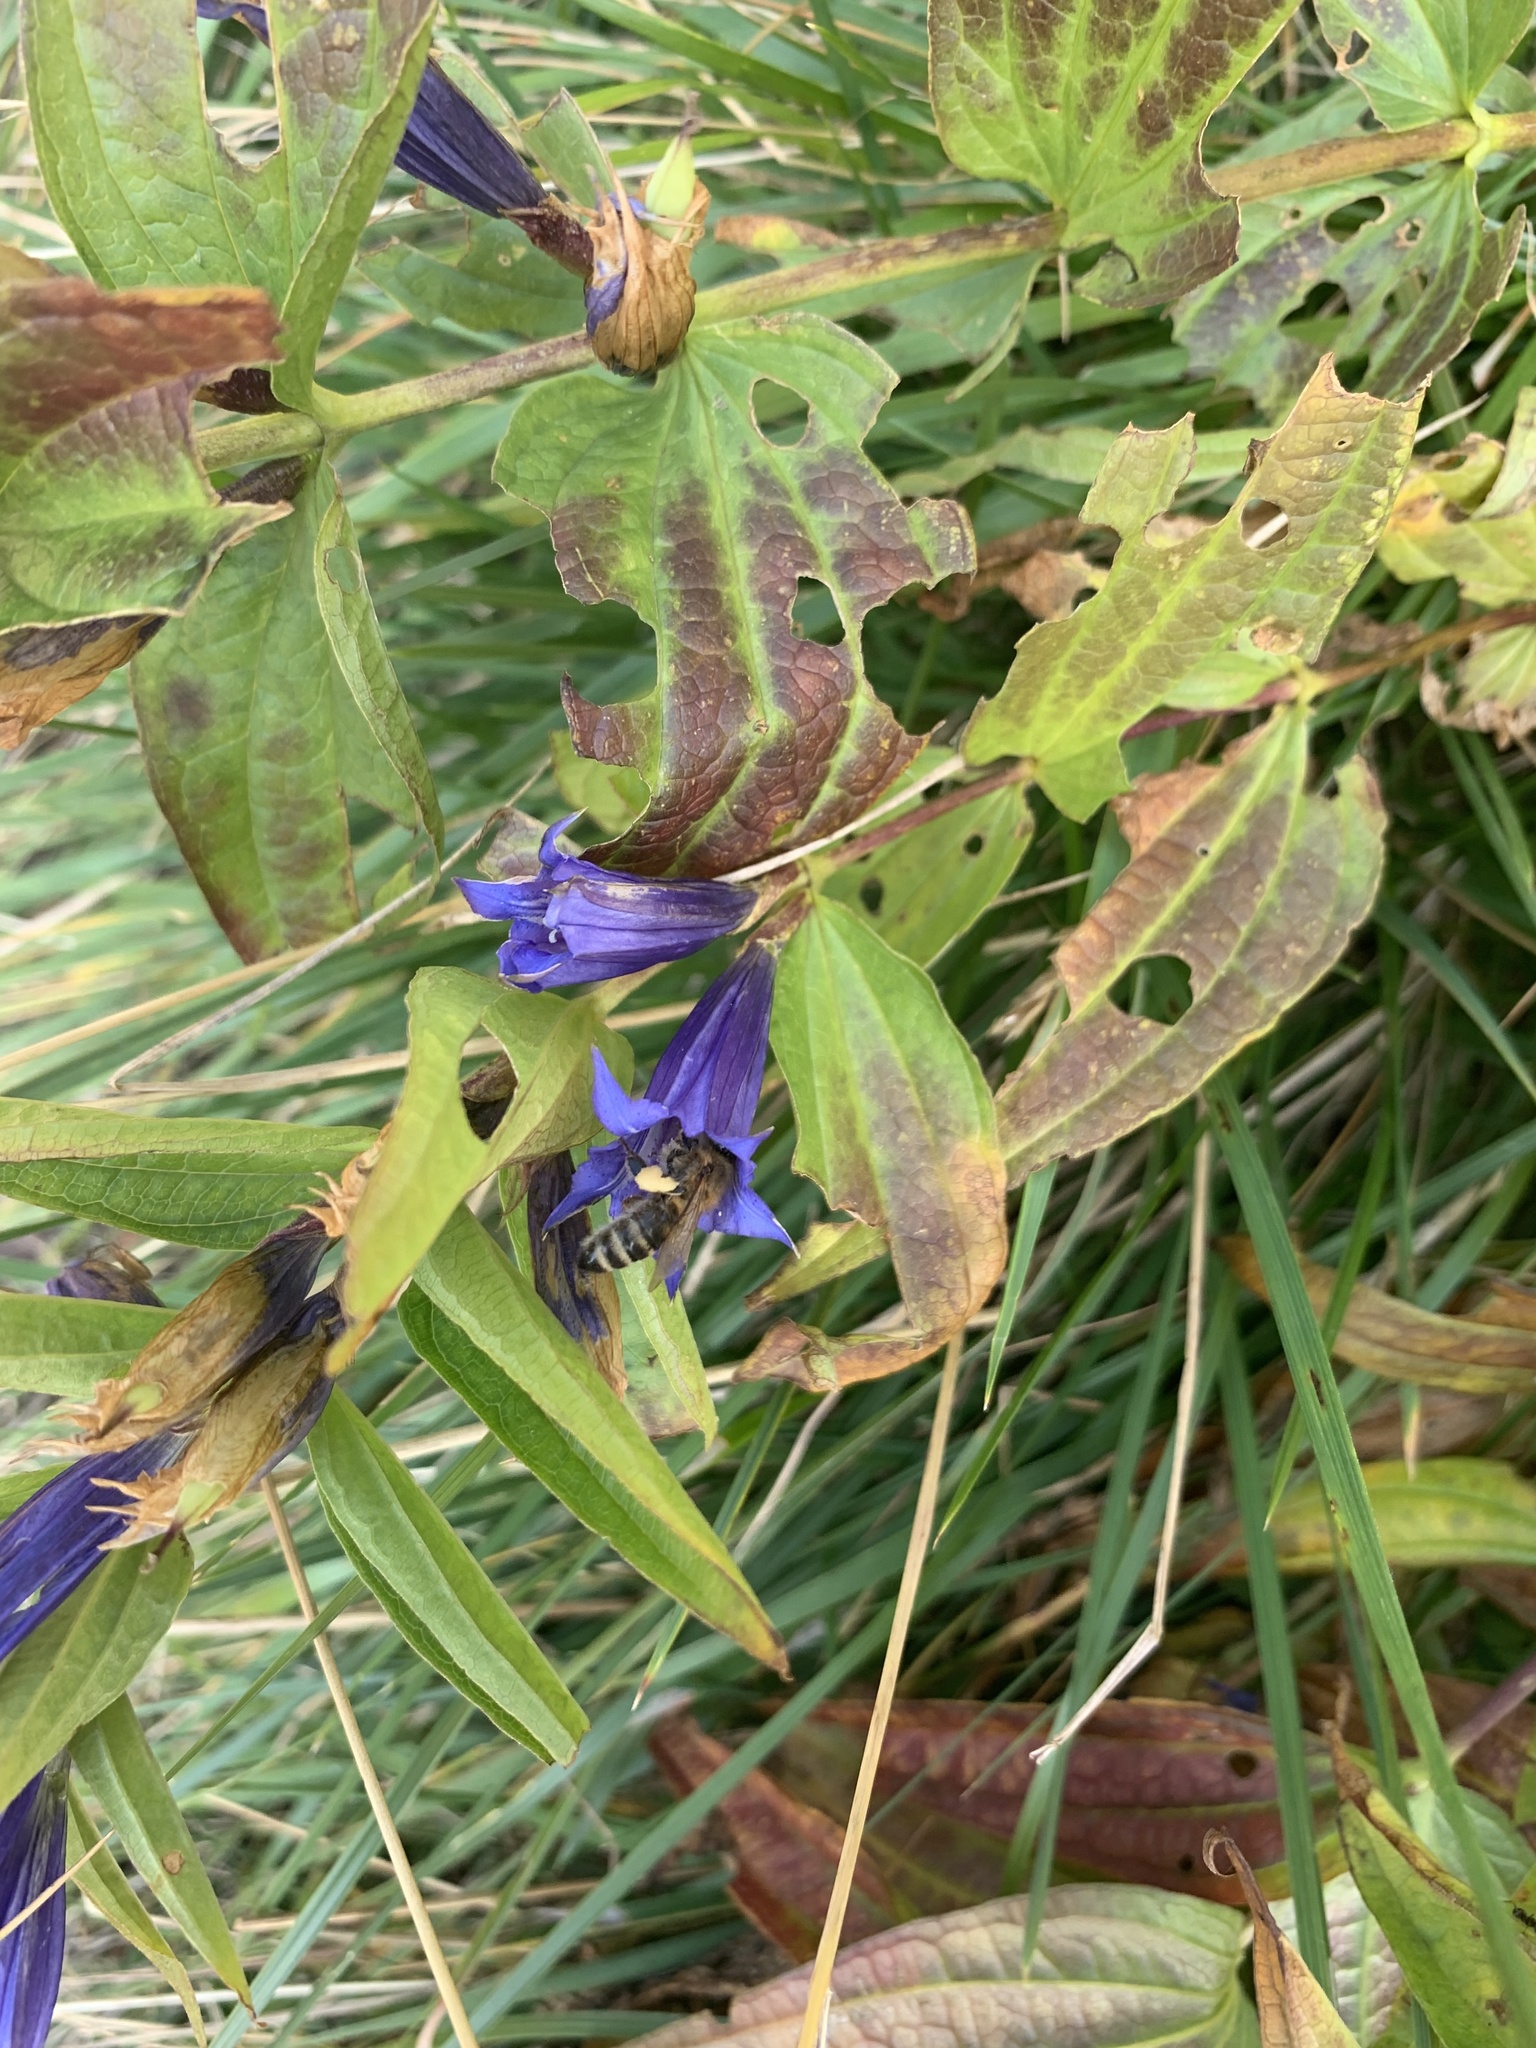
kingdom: Animalia
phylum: Arthropoda
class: Insecta
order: Hymenoptera
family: Apidae
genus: Apis
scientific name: Apis mellifera
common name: Honey bee
